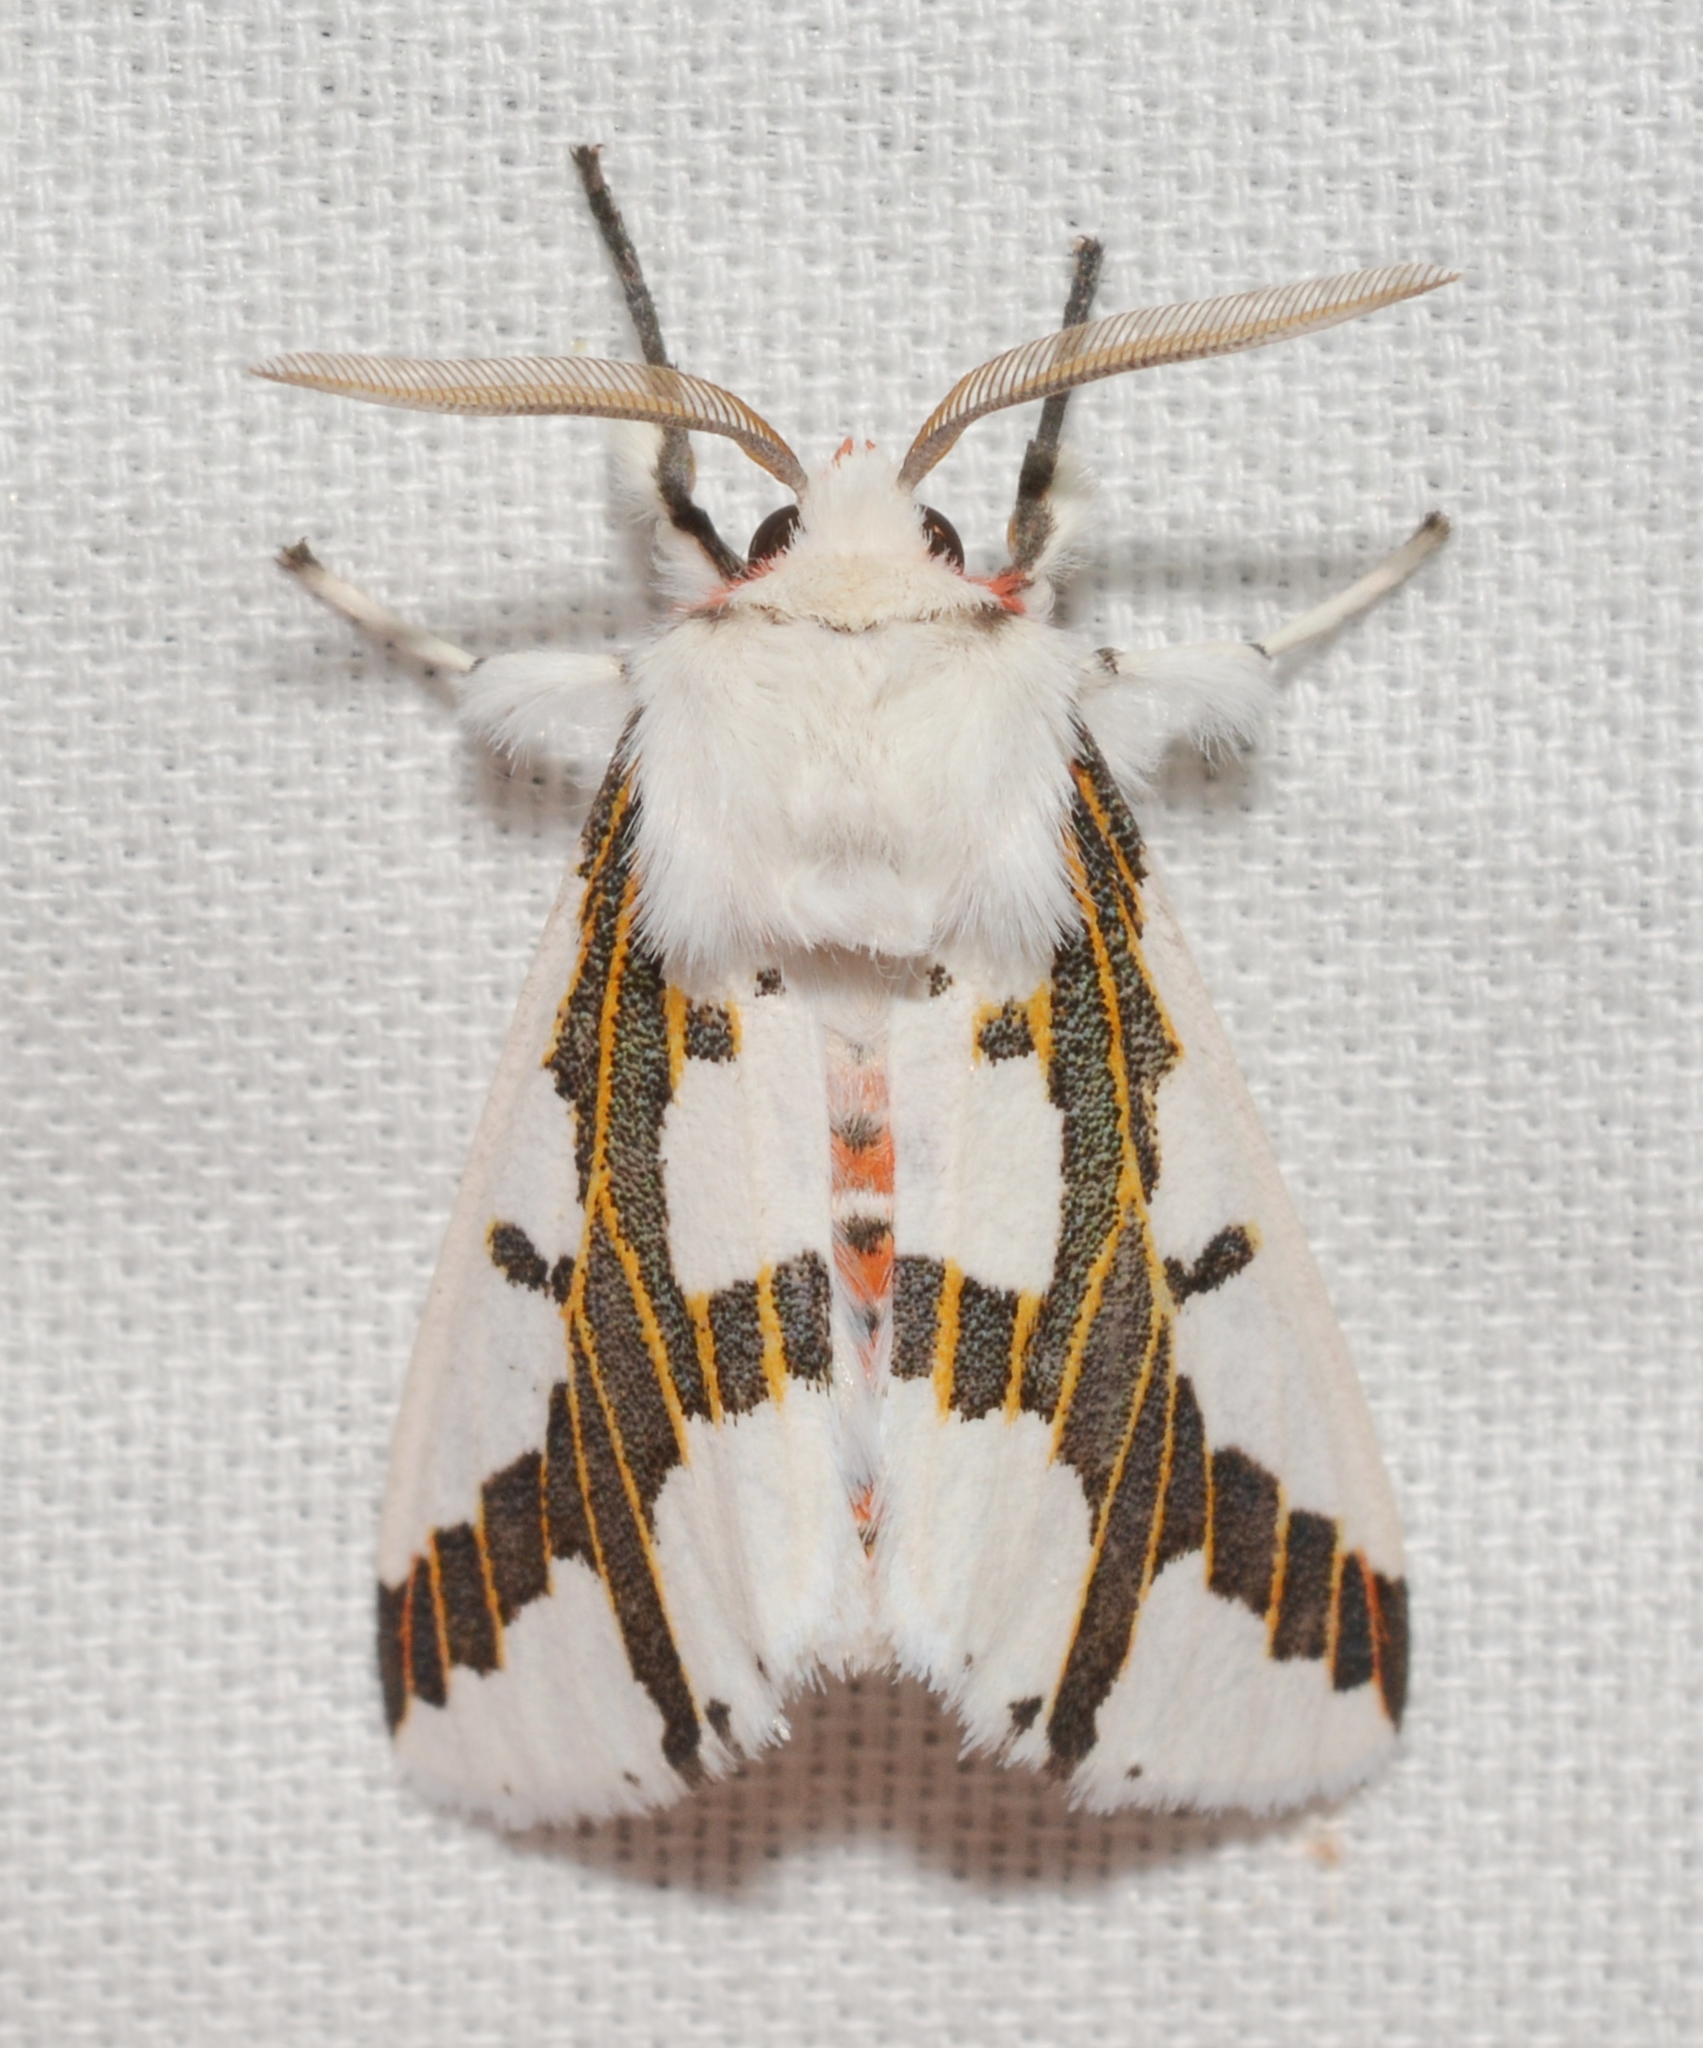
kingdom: Animalia
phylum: Arthropoda
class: Insecta
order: Lepidoptera
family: Erebidae
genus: Euerythra
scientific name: Euerythra phasma
